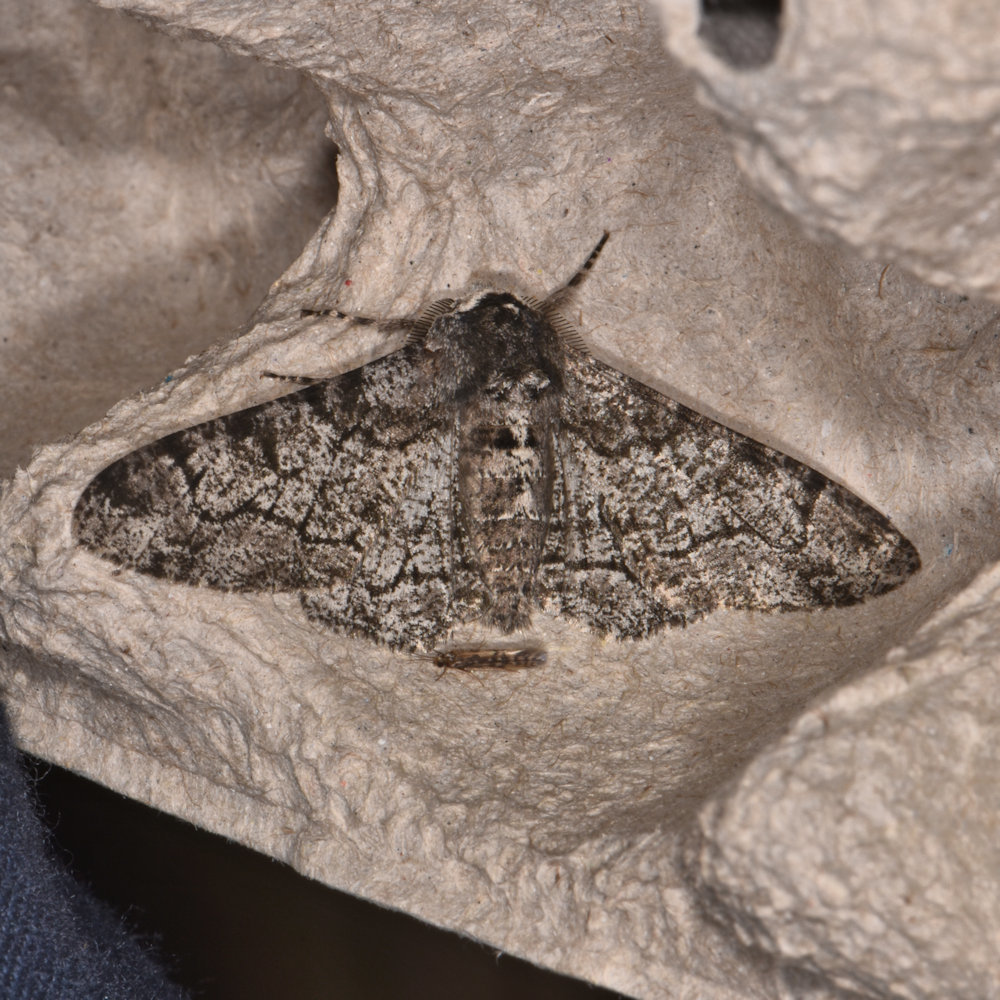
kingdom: Animalia
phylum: Arthropoda
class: Insecta
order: Lepidoptera
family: Geometridae
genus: Biston
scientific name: Biston betularia
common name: Peppered moth
